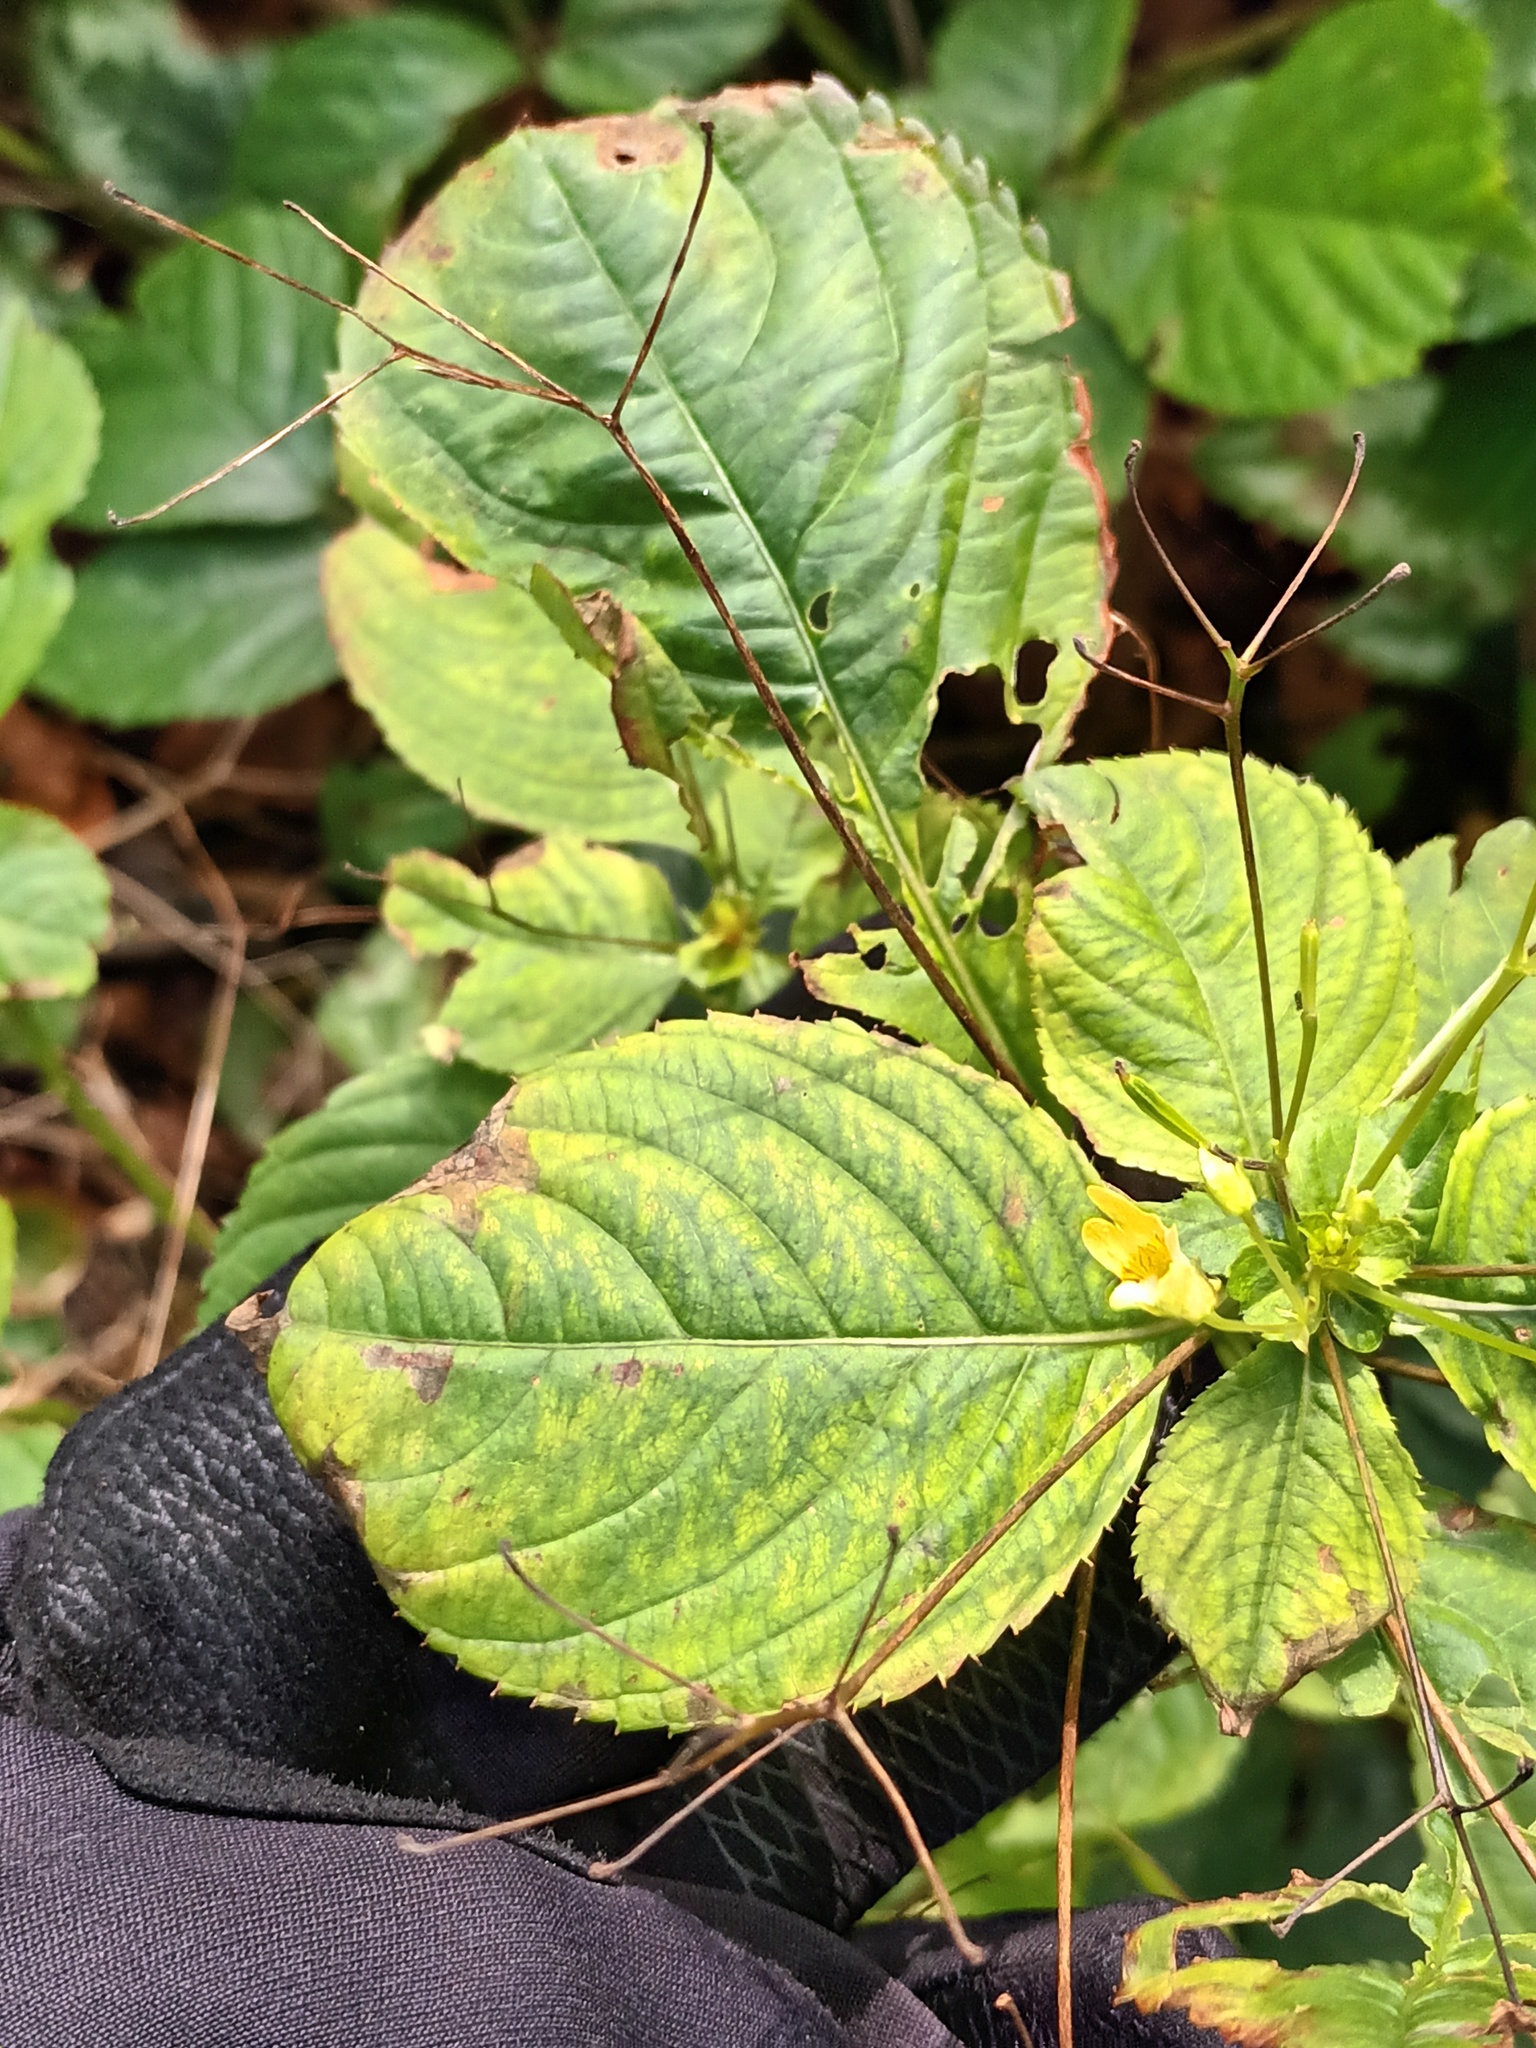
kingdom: Plantae
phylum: Tracheophyta
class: Magnoliopsida
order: Ericales
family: Balsaminaceae
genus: Impatiens
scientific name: Impatiens parviflora
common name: Small balsam
